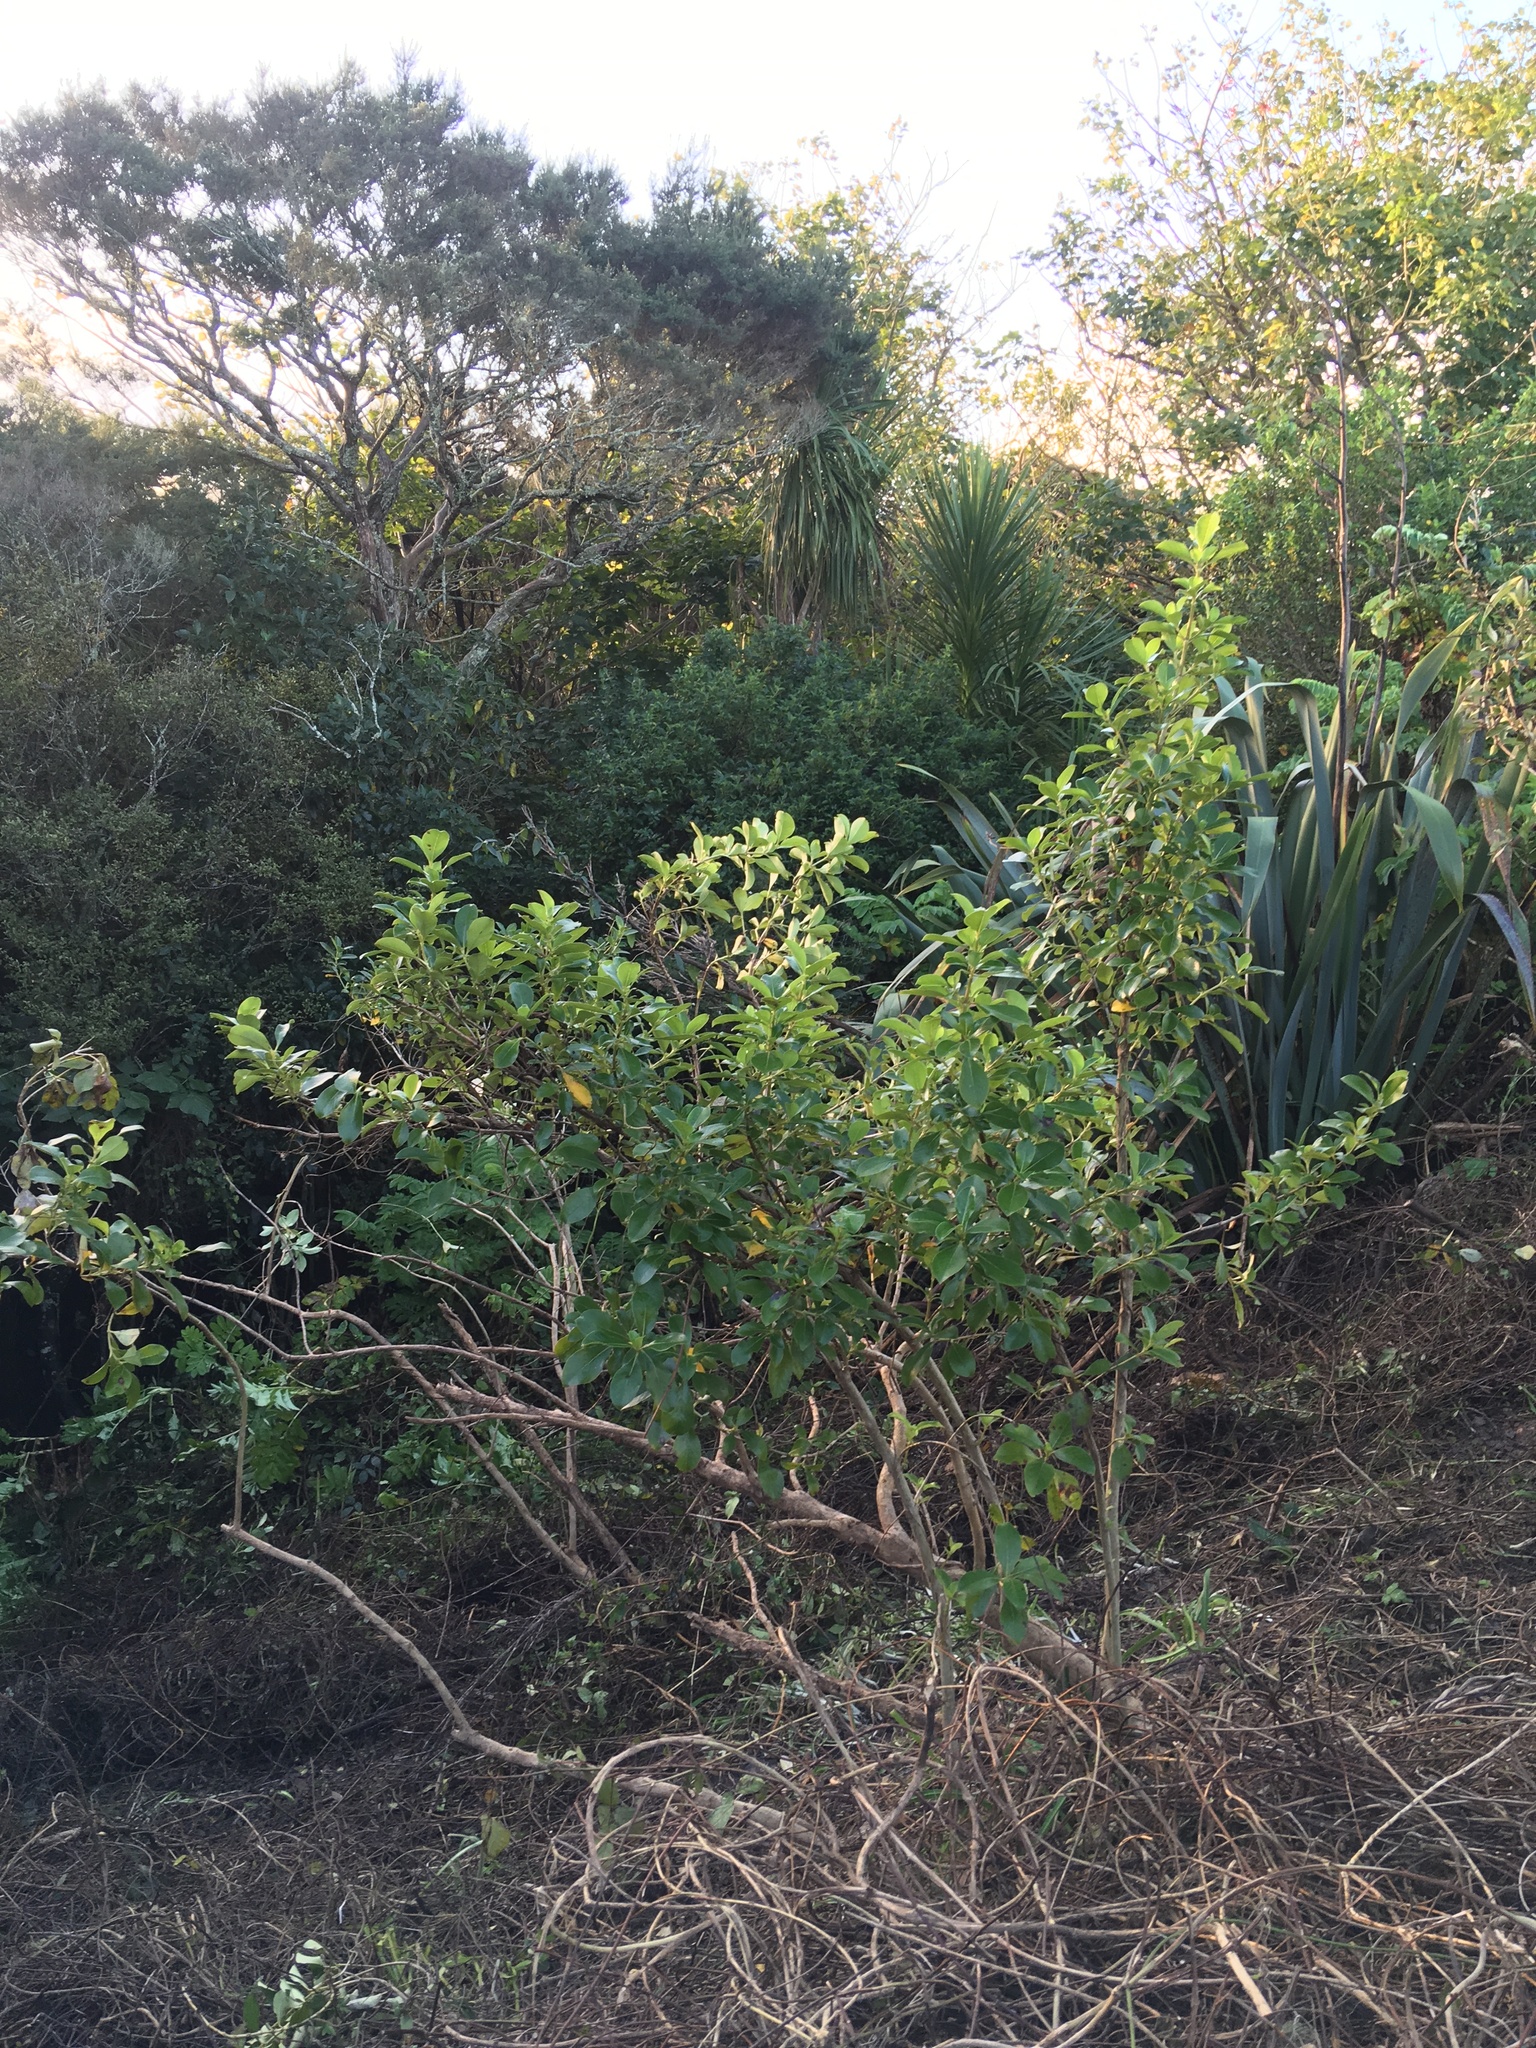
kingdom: Plantae
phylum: Tracheophyta
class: Magnoliopsida
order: Gentianales
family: Rubiaceae
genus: Coprosma
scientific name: Coprosma robusta
